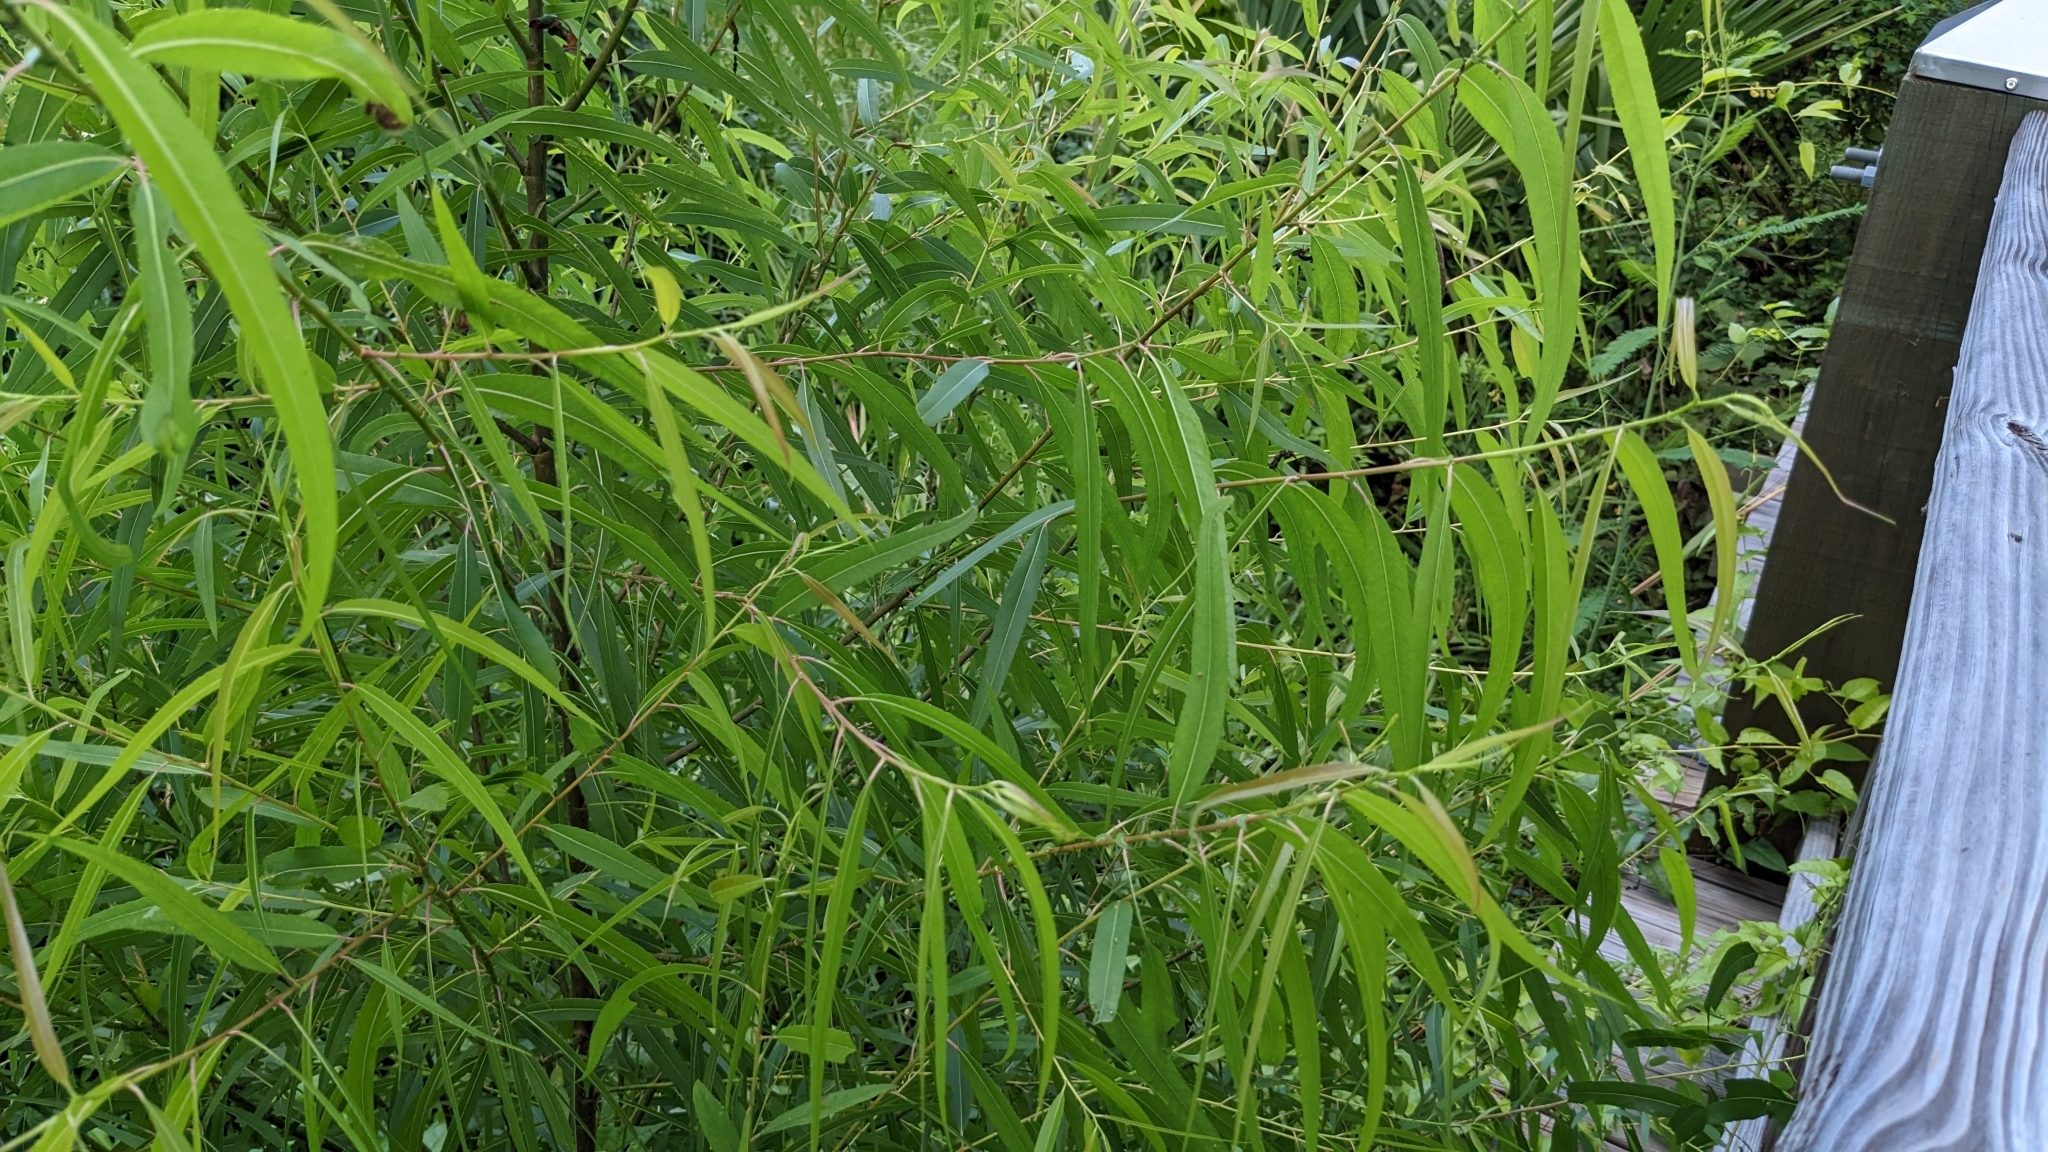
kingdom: Plantae
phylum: Tracheophyta
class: Magnoliopsida
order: Malpighiales
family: Salicaceae
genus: Salix
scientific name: Salix nigra
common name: Black willow
